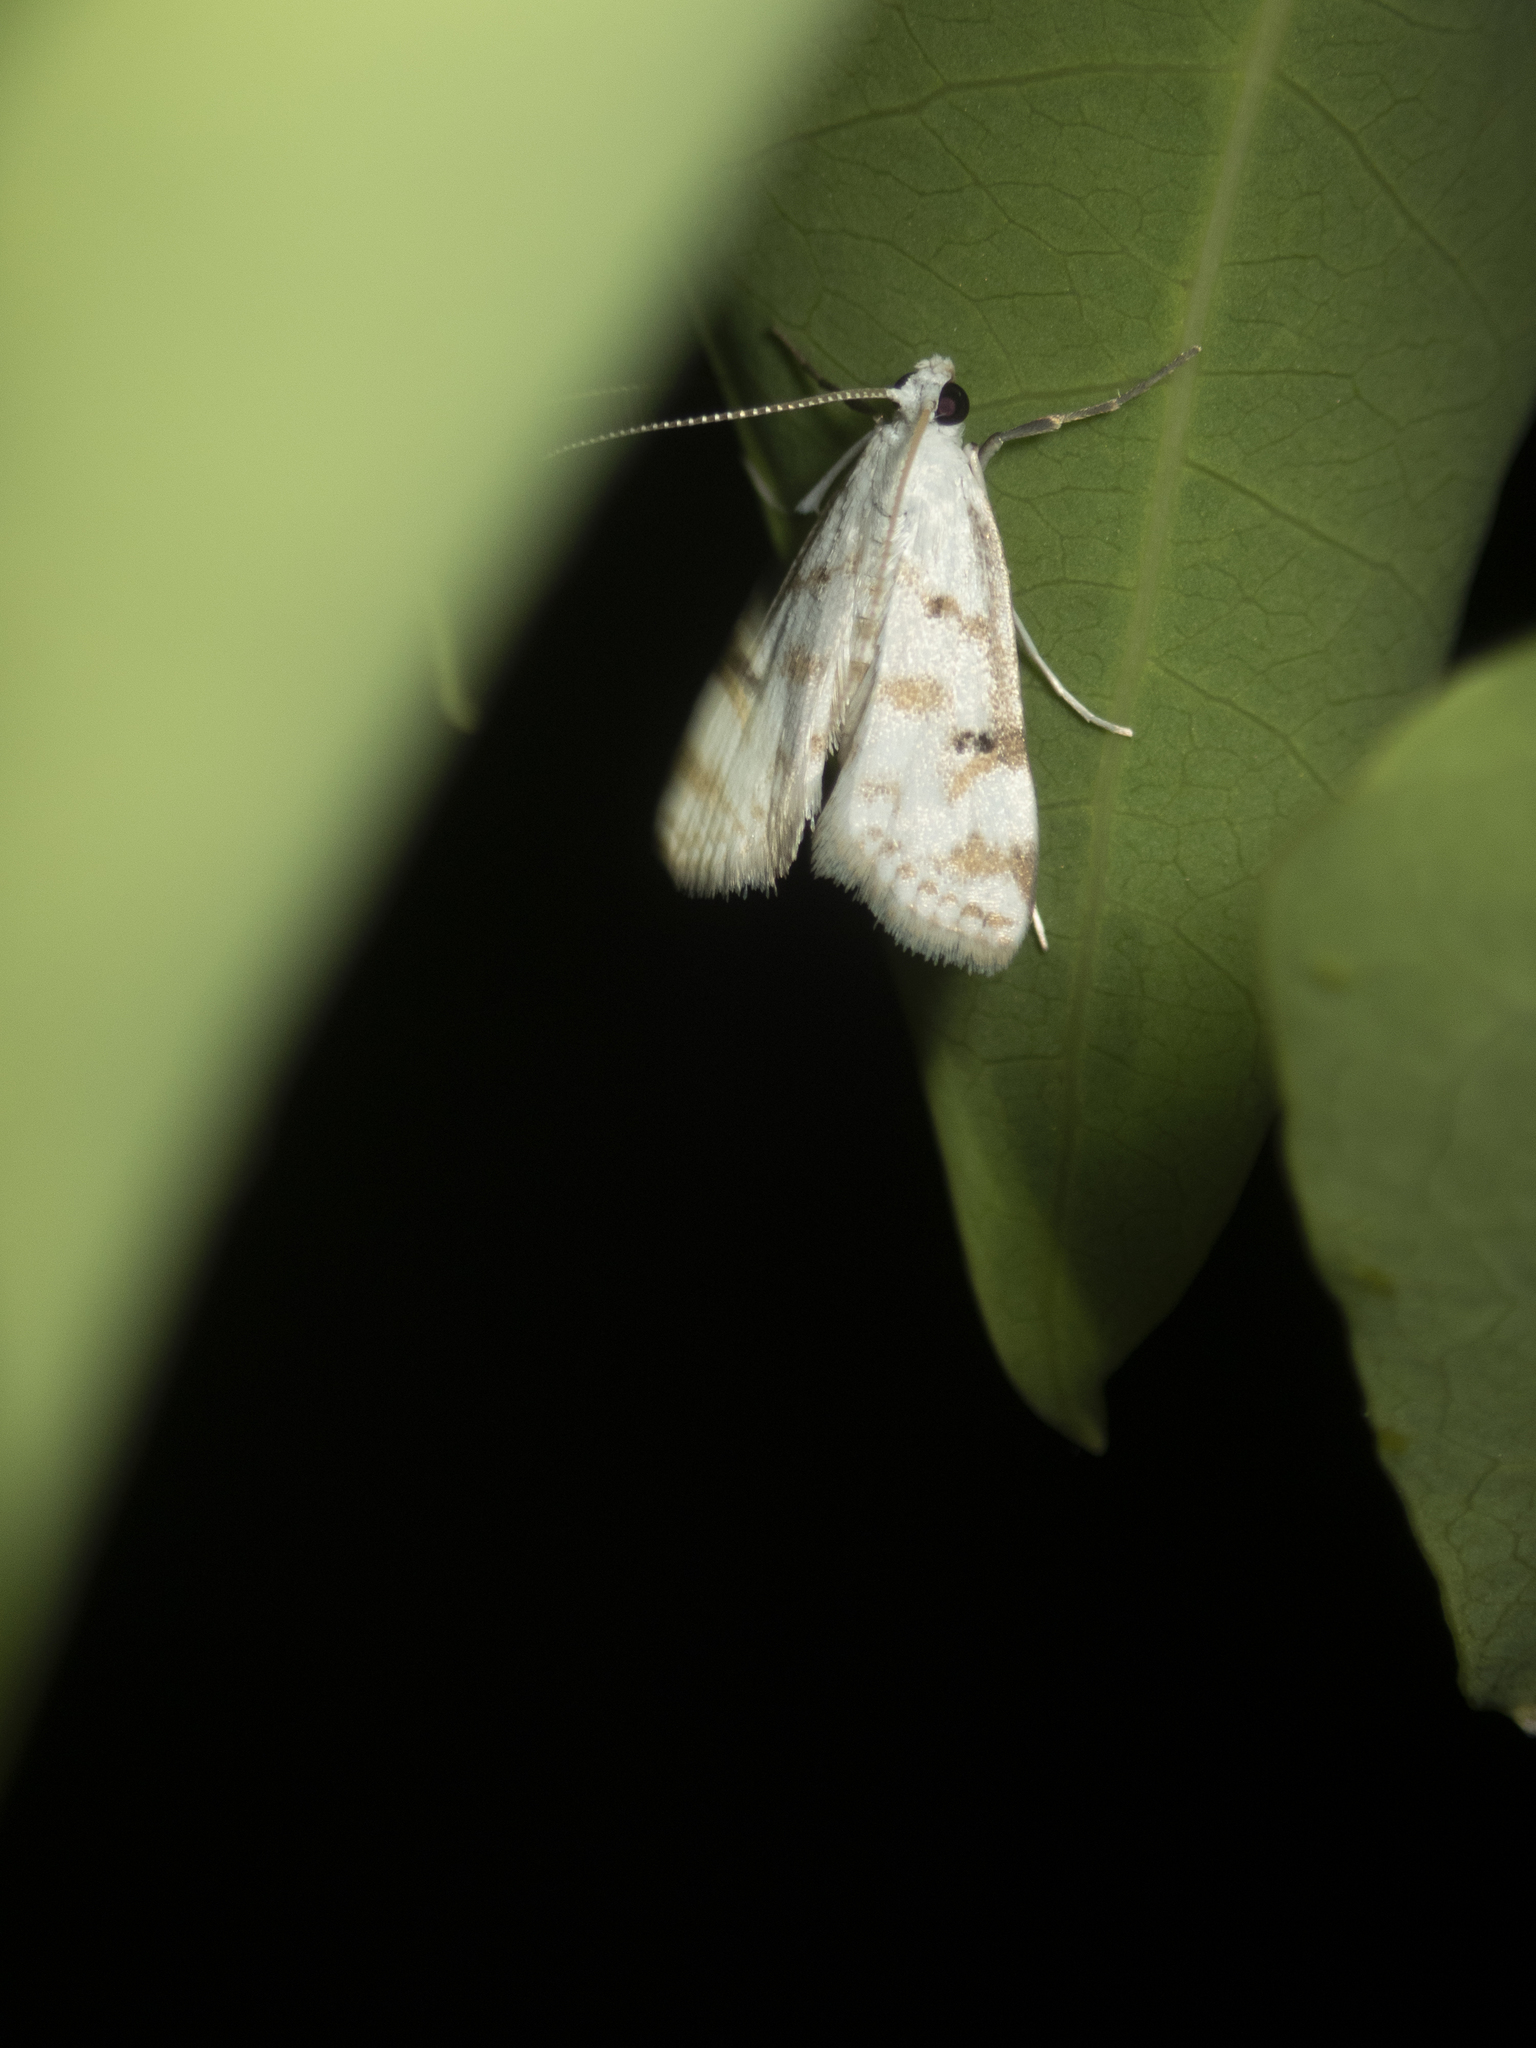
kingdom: Animalia
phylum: Arthropoda
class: Insecta
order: Lepidoptera
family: Crambidae
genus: Parapoynx
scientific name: Parapoynx stagnalis
